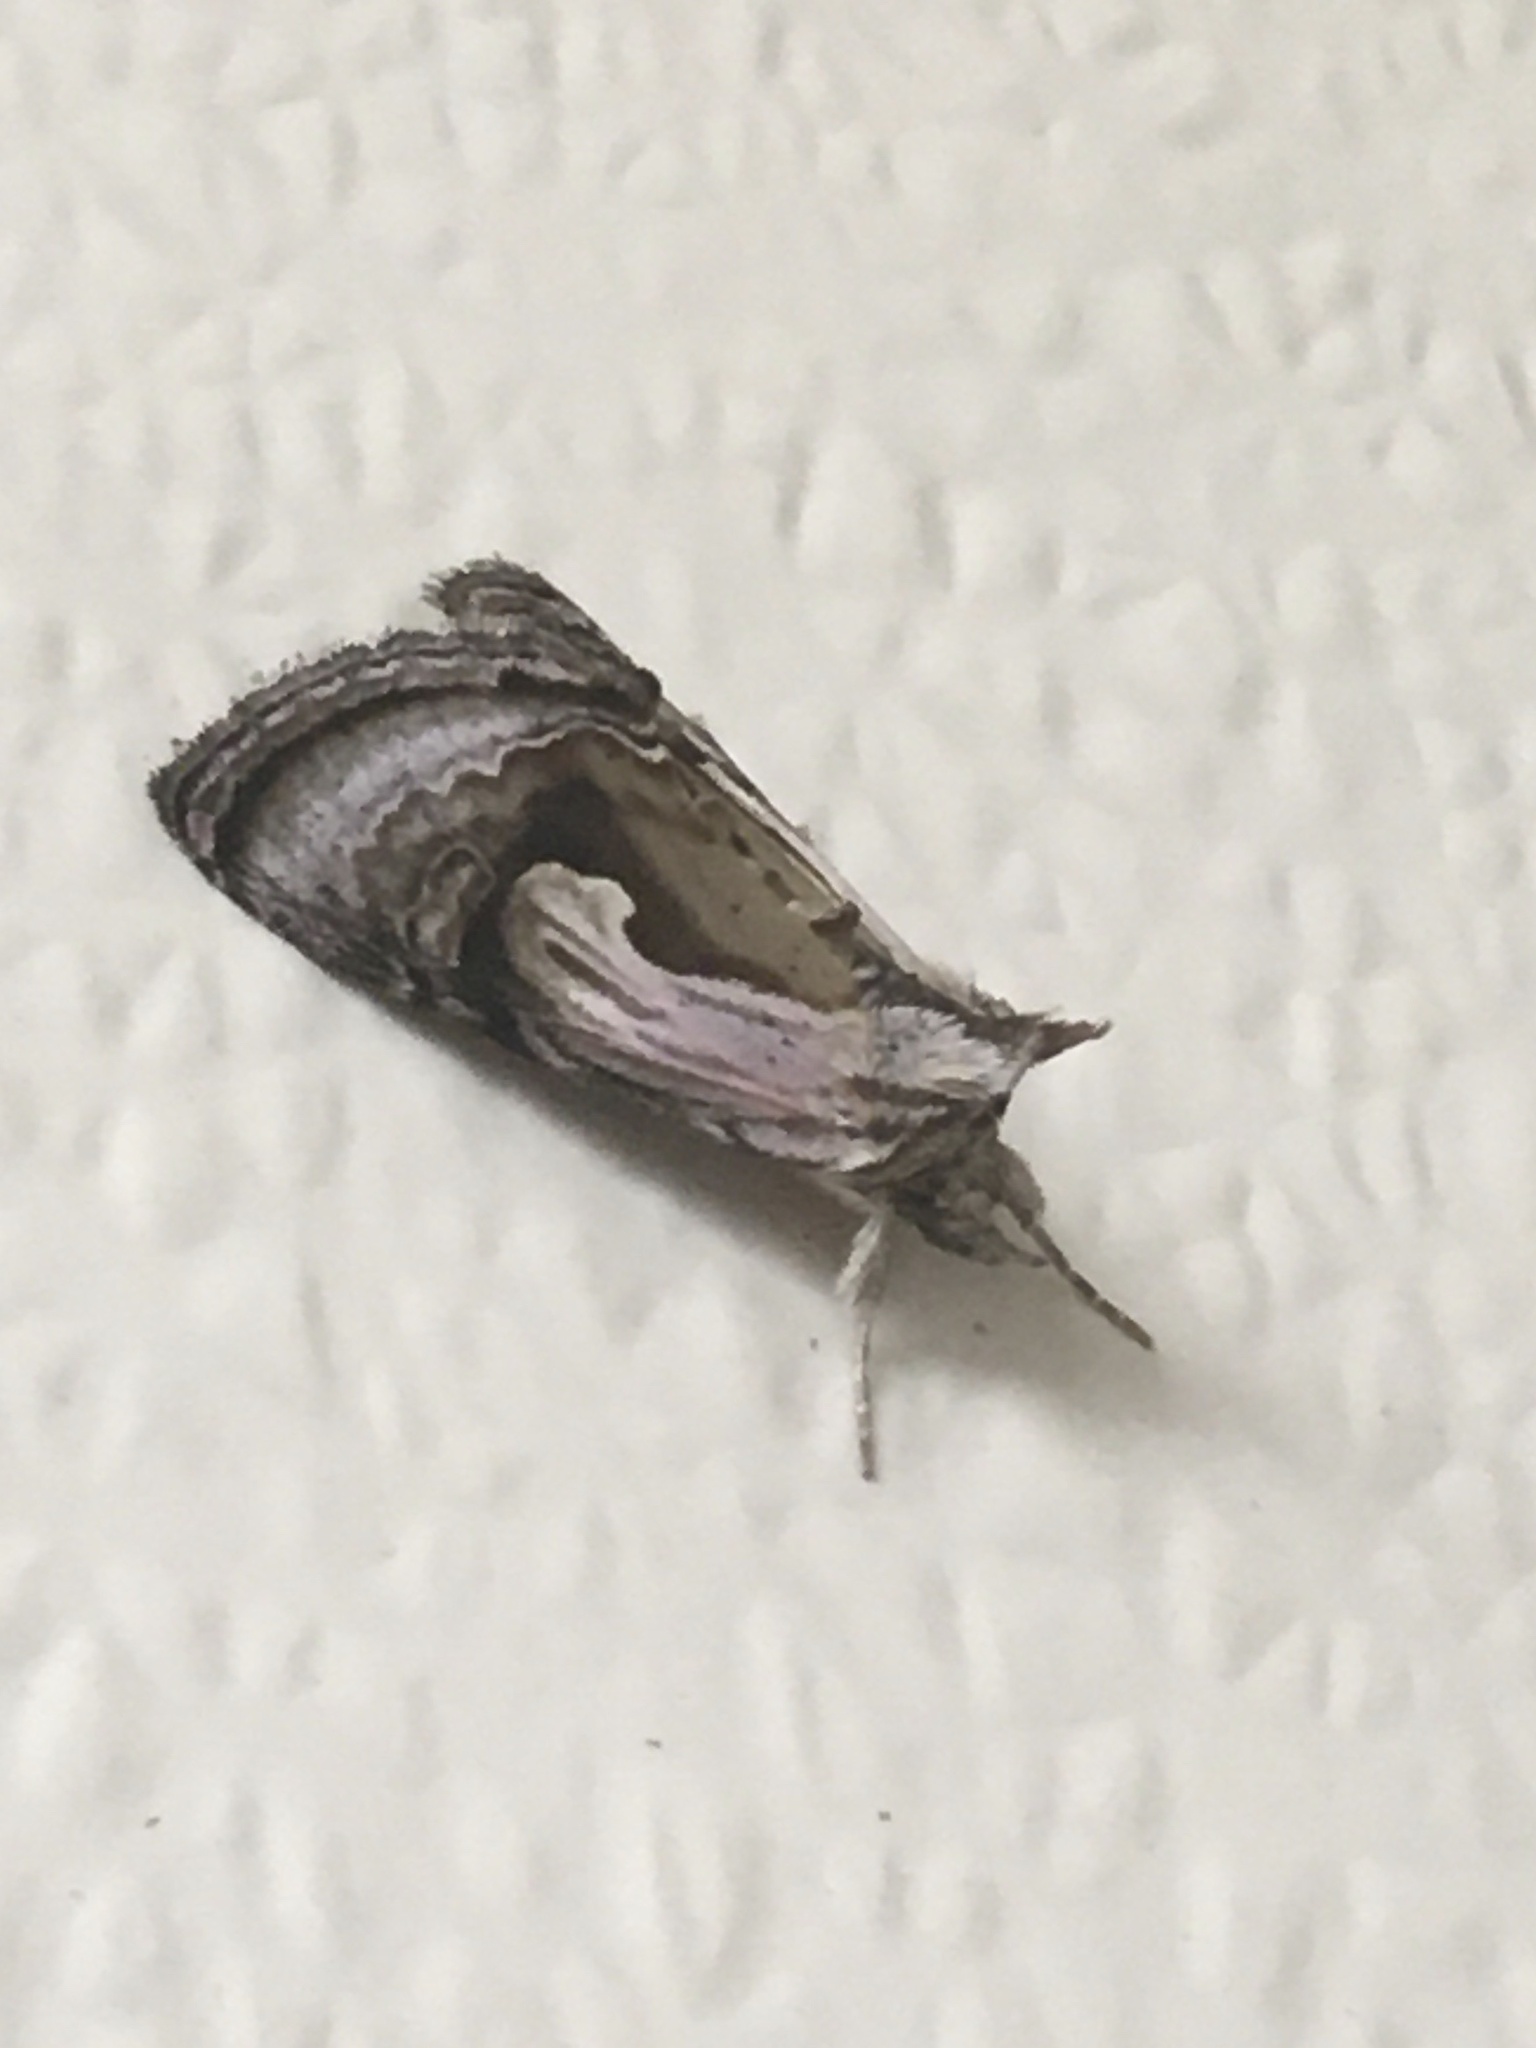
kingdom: Animalia
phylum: Arthropoda
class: Insecta
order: Lepidoptera
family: Noctuidae
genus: Chrysanympha
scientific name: Chrysanympha formosa
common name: Formosa looper moth
